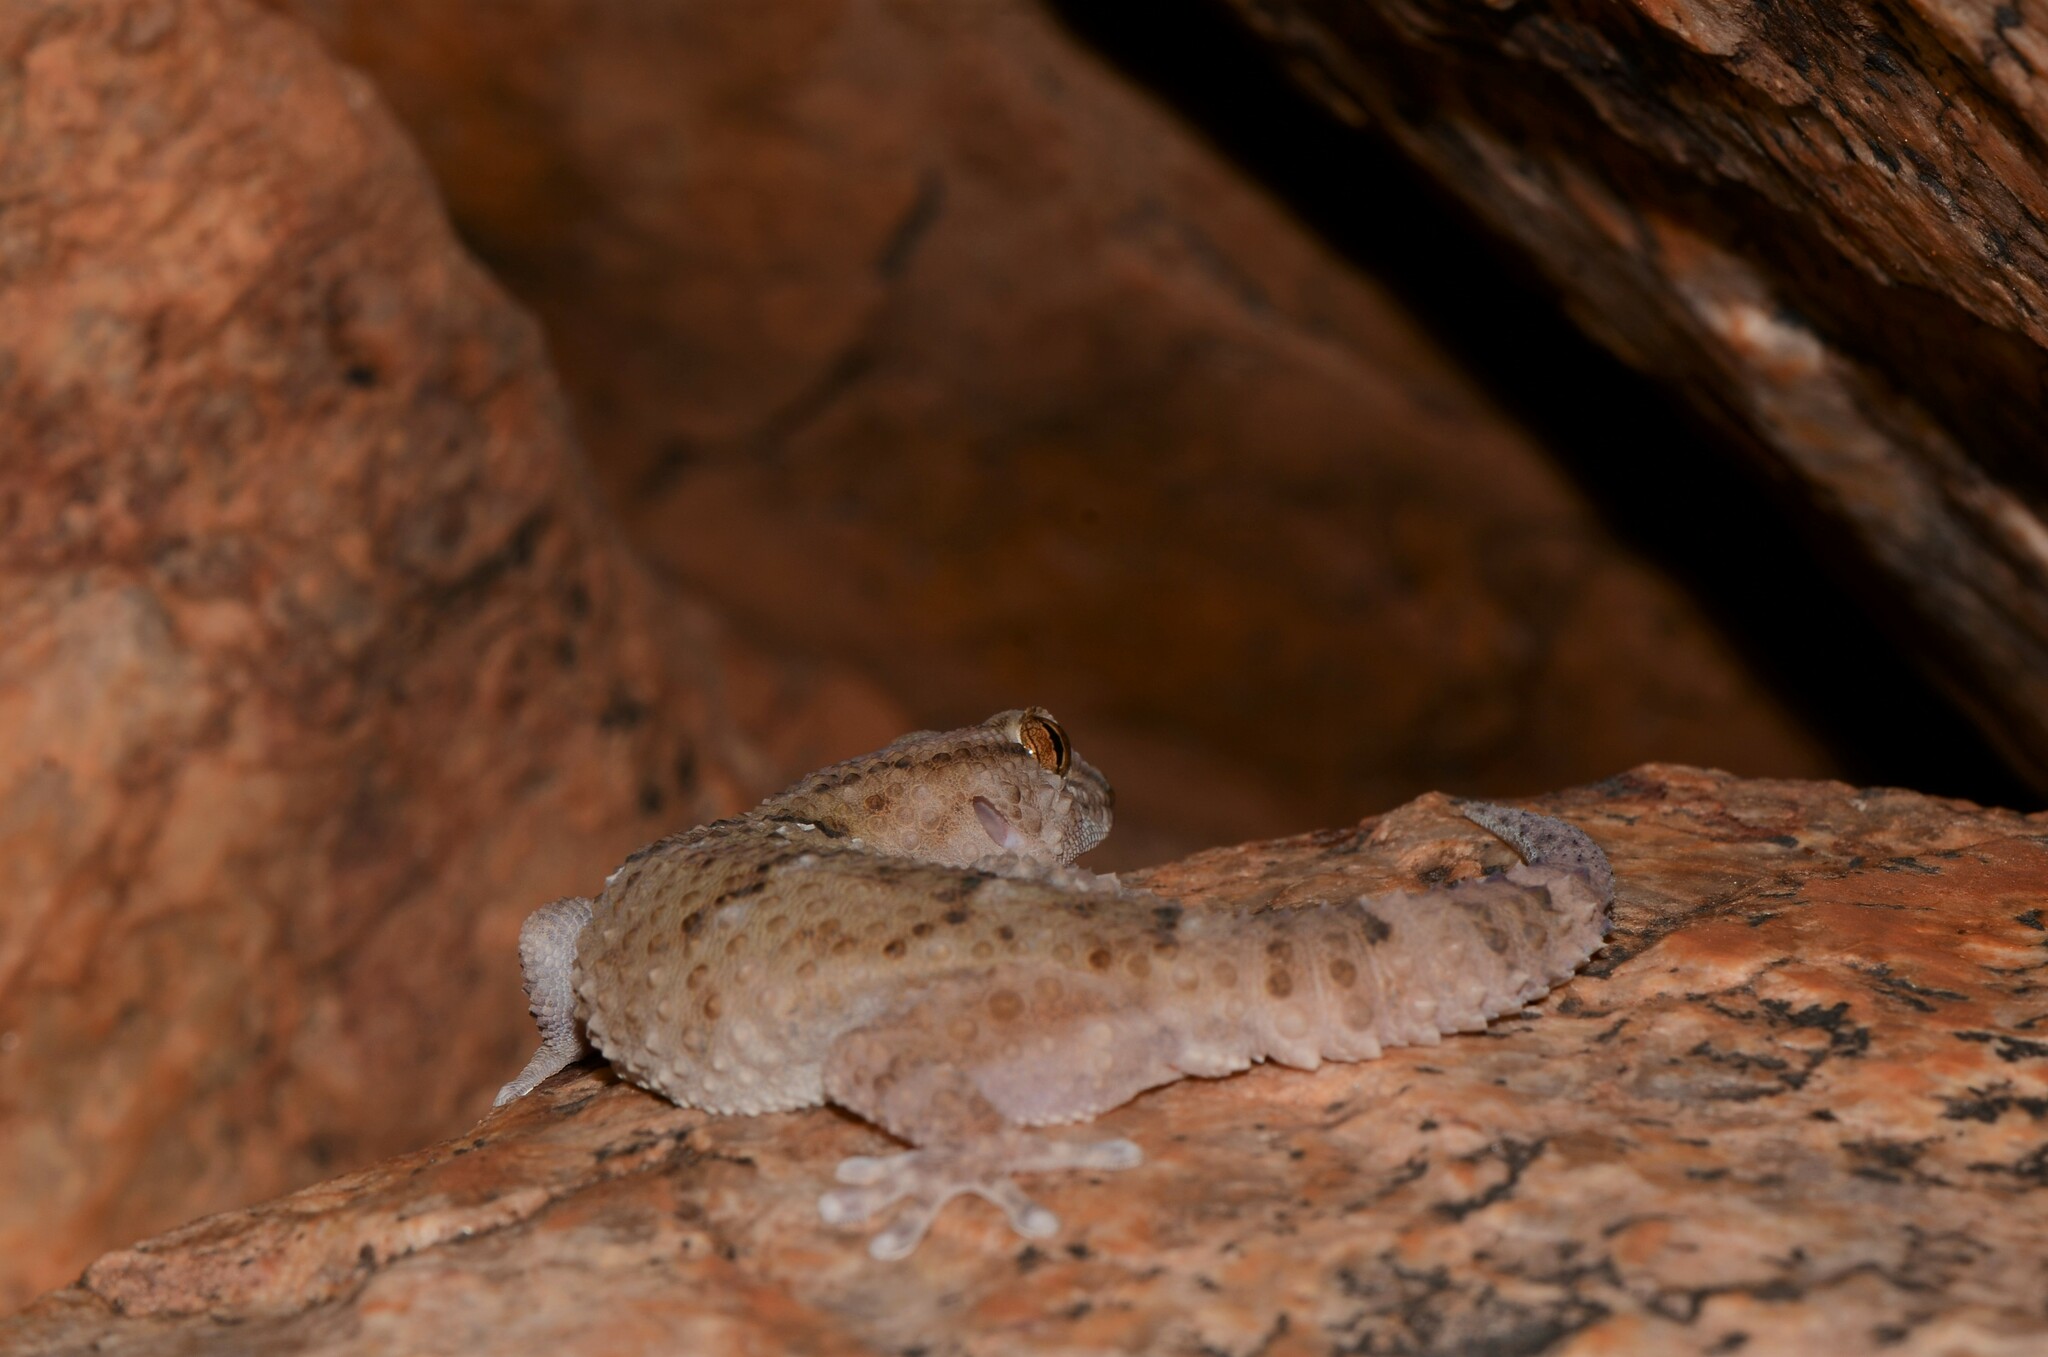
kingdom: Animalia
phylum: Chordata
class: Squamata
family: Gekkonidae
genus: Chondrodactylus
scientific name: Chondrodactylus laevigatus
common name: Fischer's thick-toed gecko
